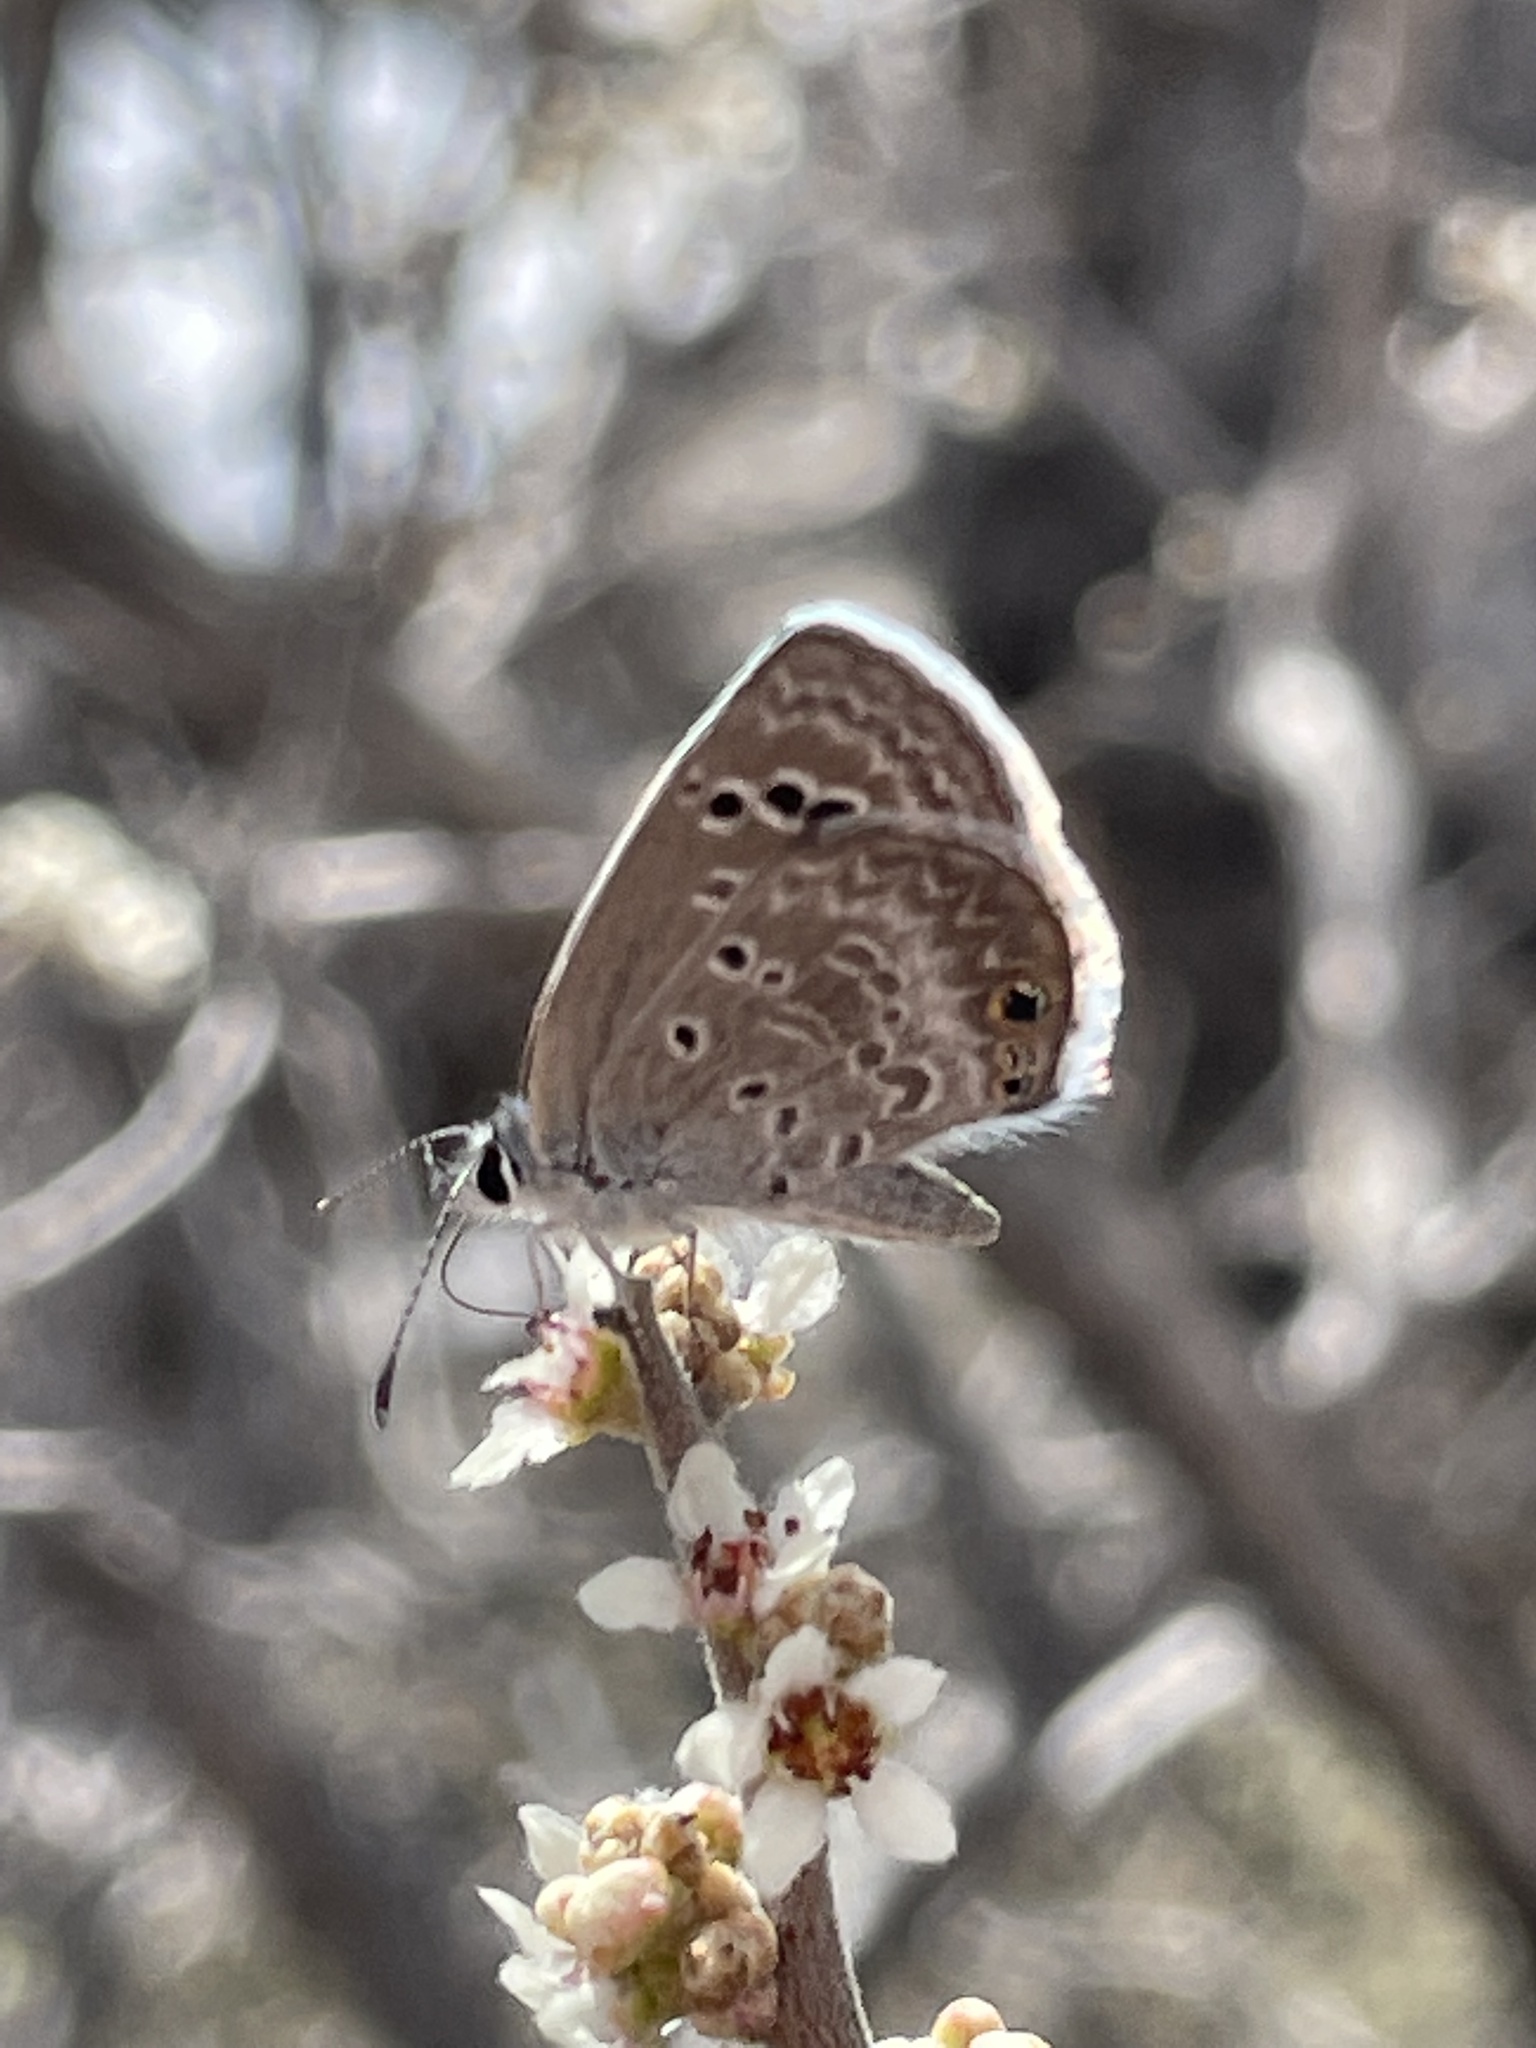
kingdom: Animalia
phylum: Arthropoda
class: Insecta
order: Lepidoptera
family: Lycaenidae
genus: Echinargus
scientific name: Echinargus isola
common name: Reakirt's blue
